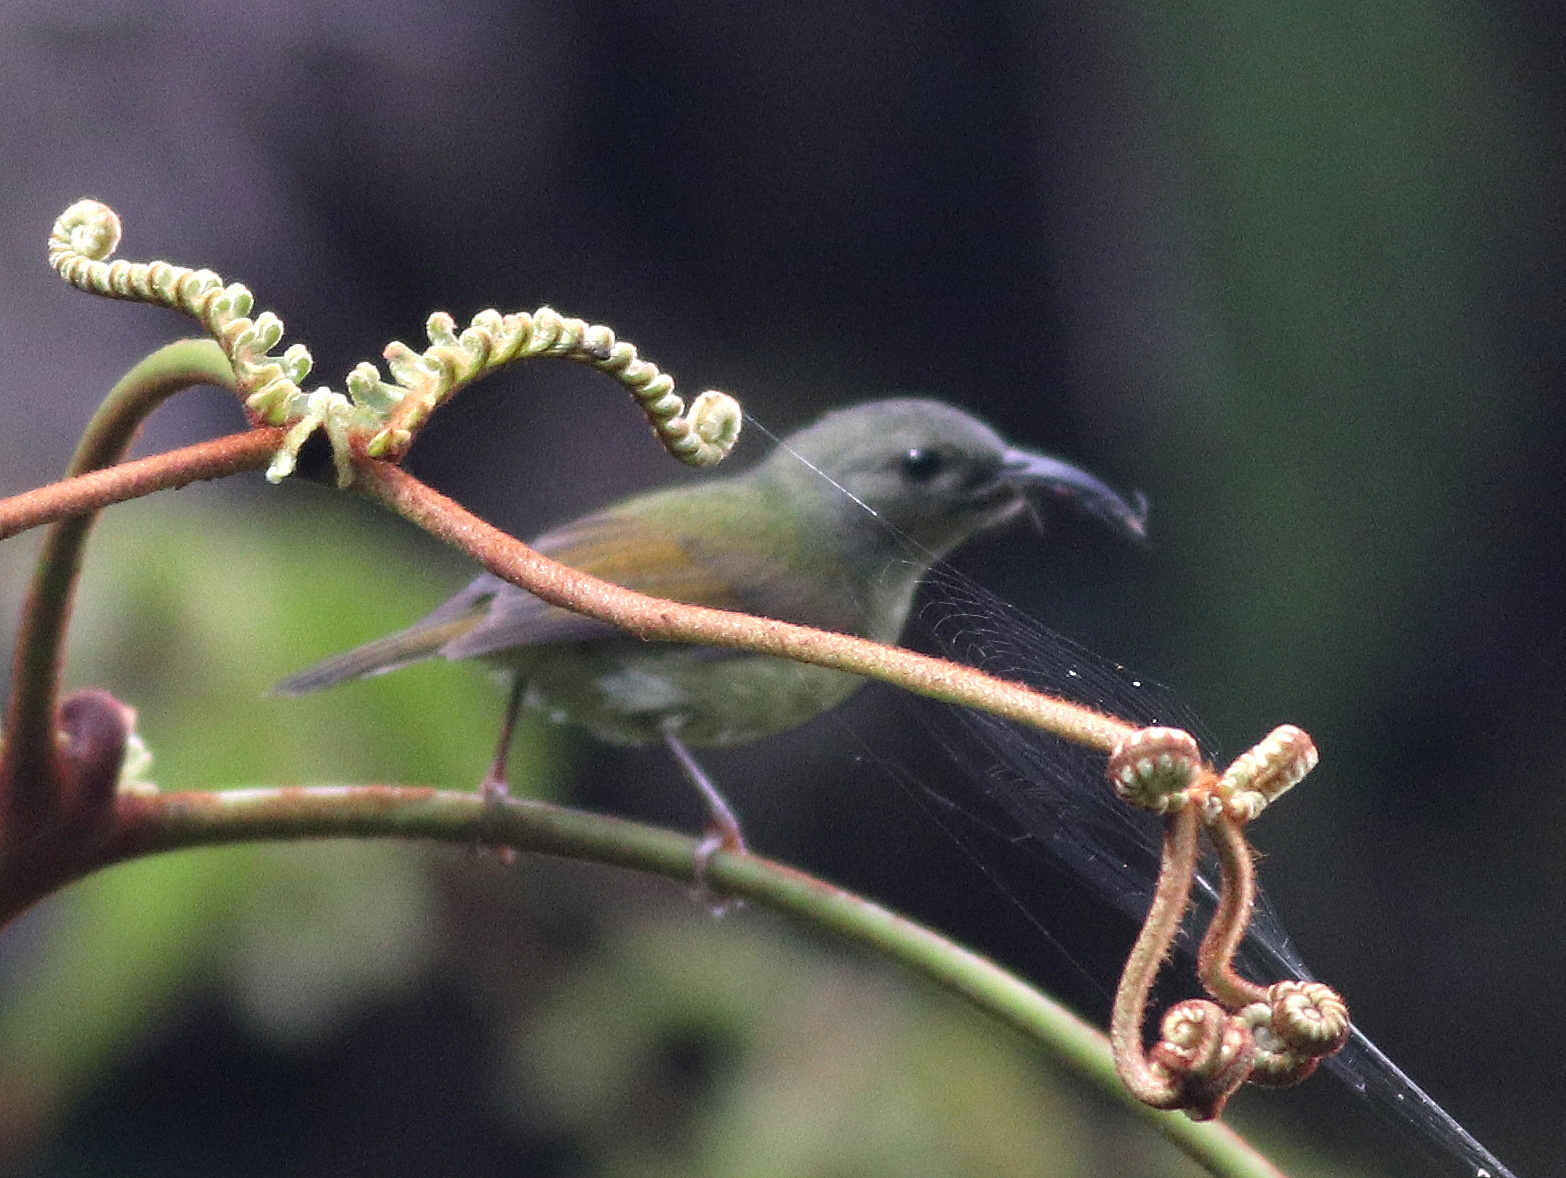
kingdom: Animalia
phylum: Chordata
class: Aves
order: Passeriformes
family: Nectariniidae
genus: Aethopyga
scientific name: Aethopyga saturata
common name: Black-throated sunbird
